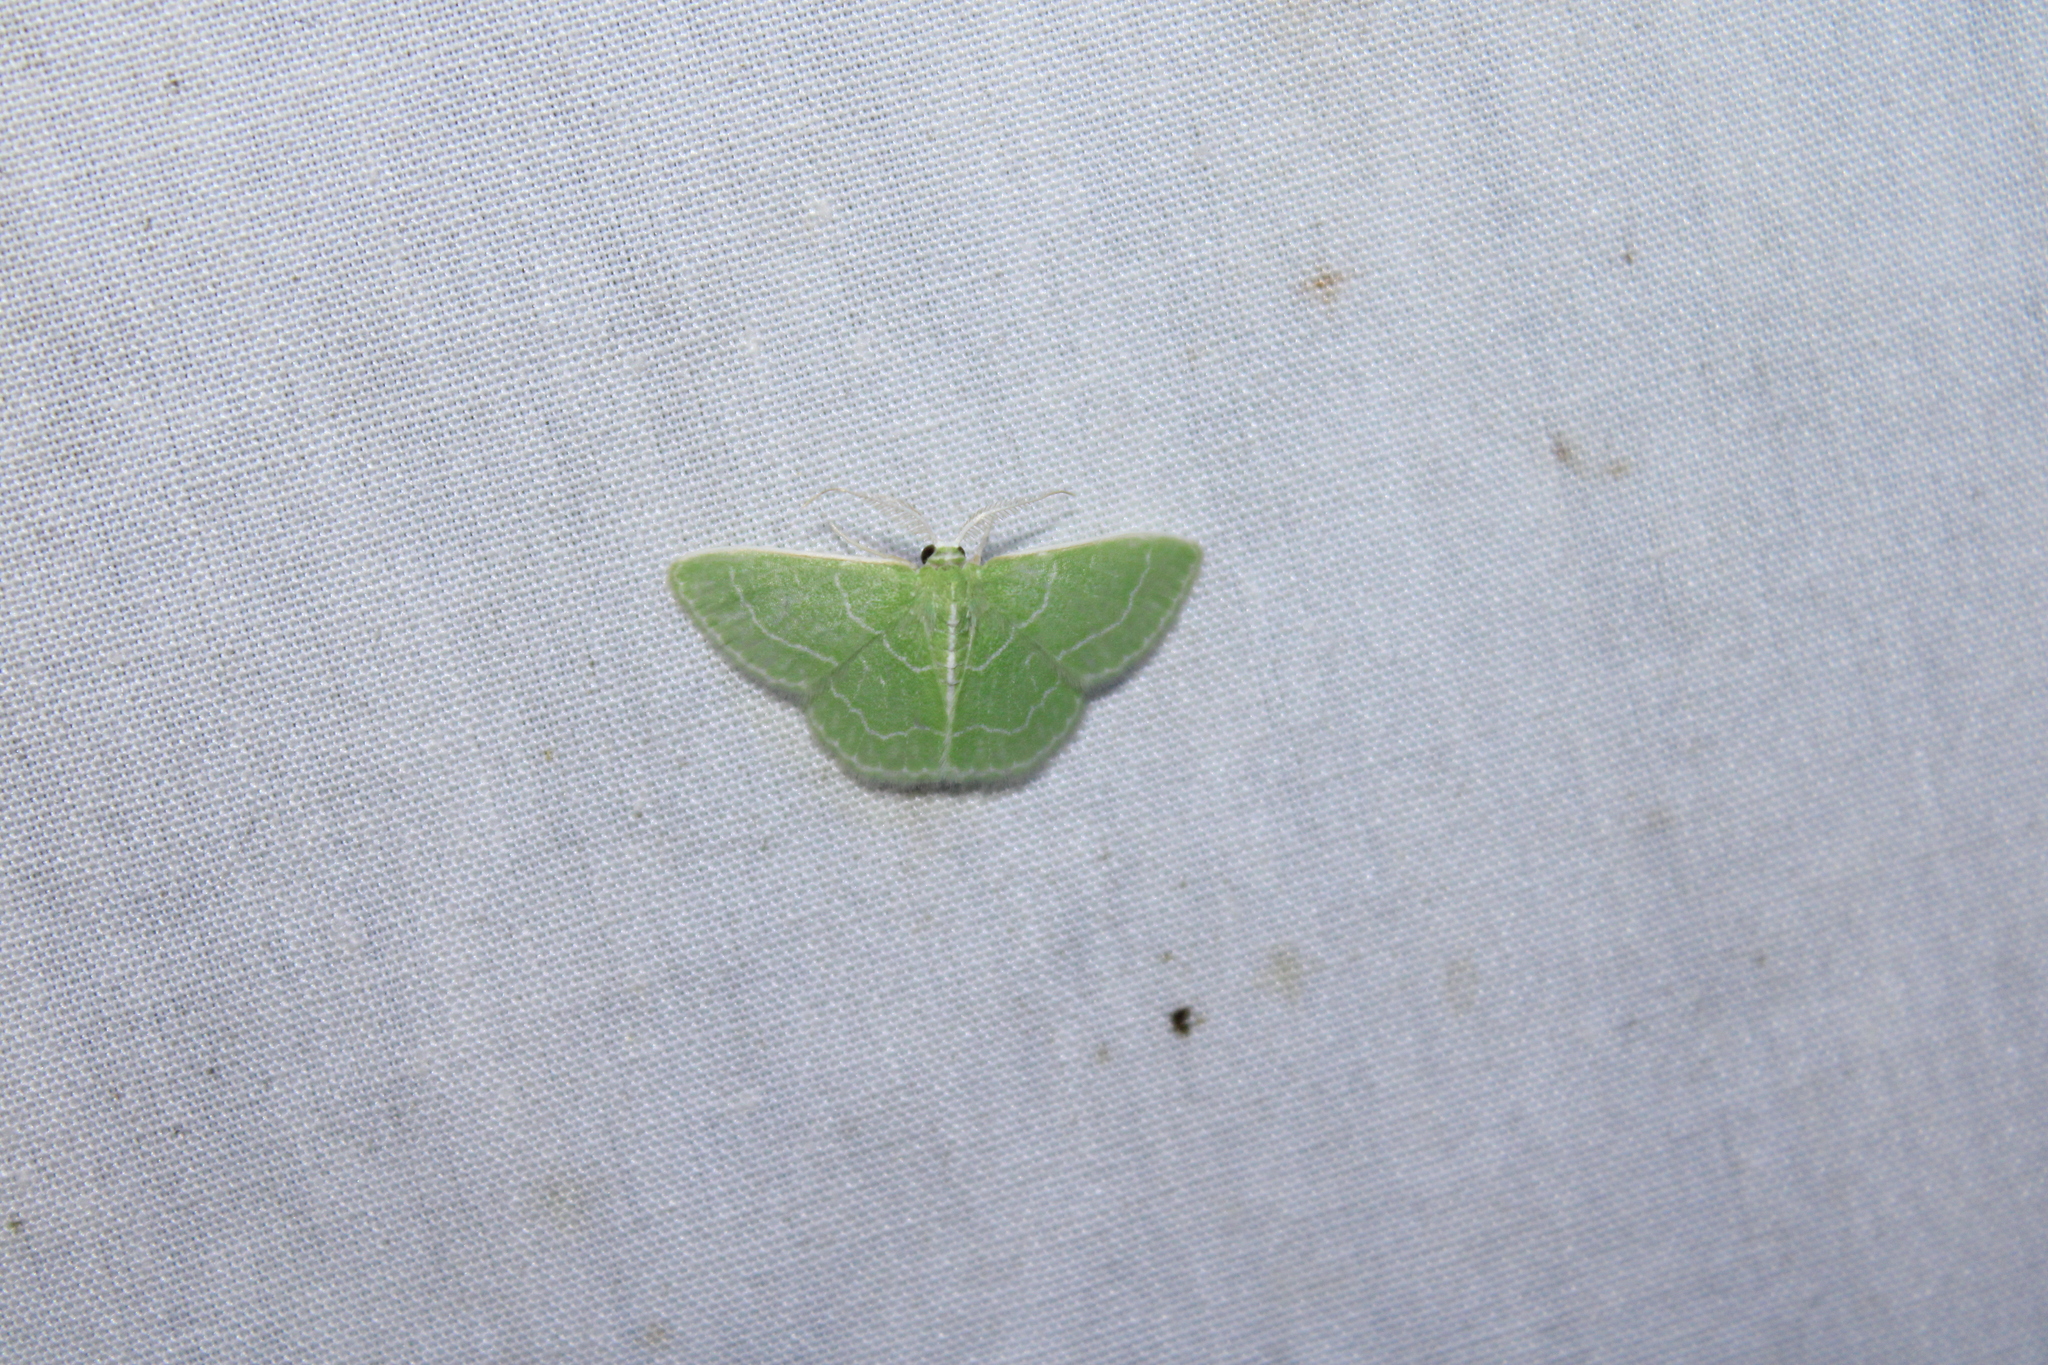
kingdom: Animalia
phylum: Arthropoda
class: Insecta
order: Lepidoptera
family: Geometridae
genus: Synchlora
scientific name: Synchlora aerata
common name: Wavy-lined emerald
